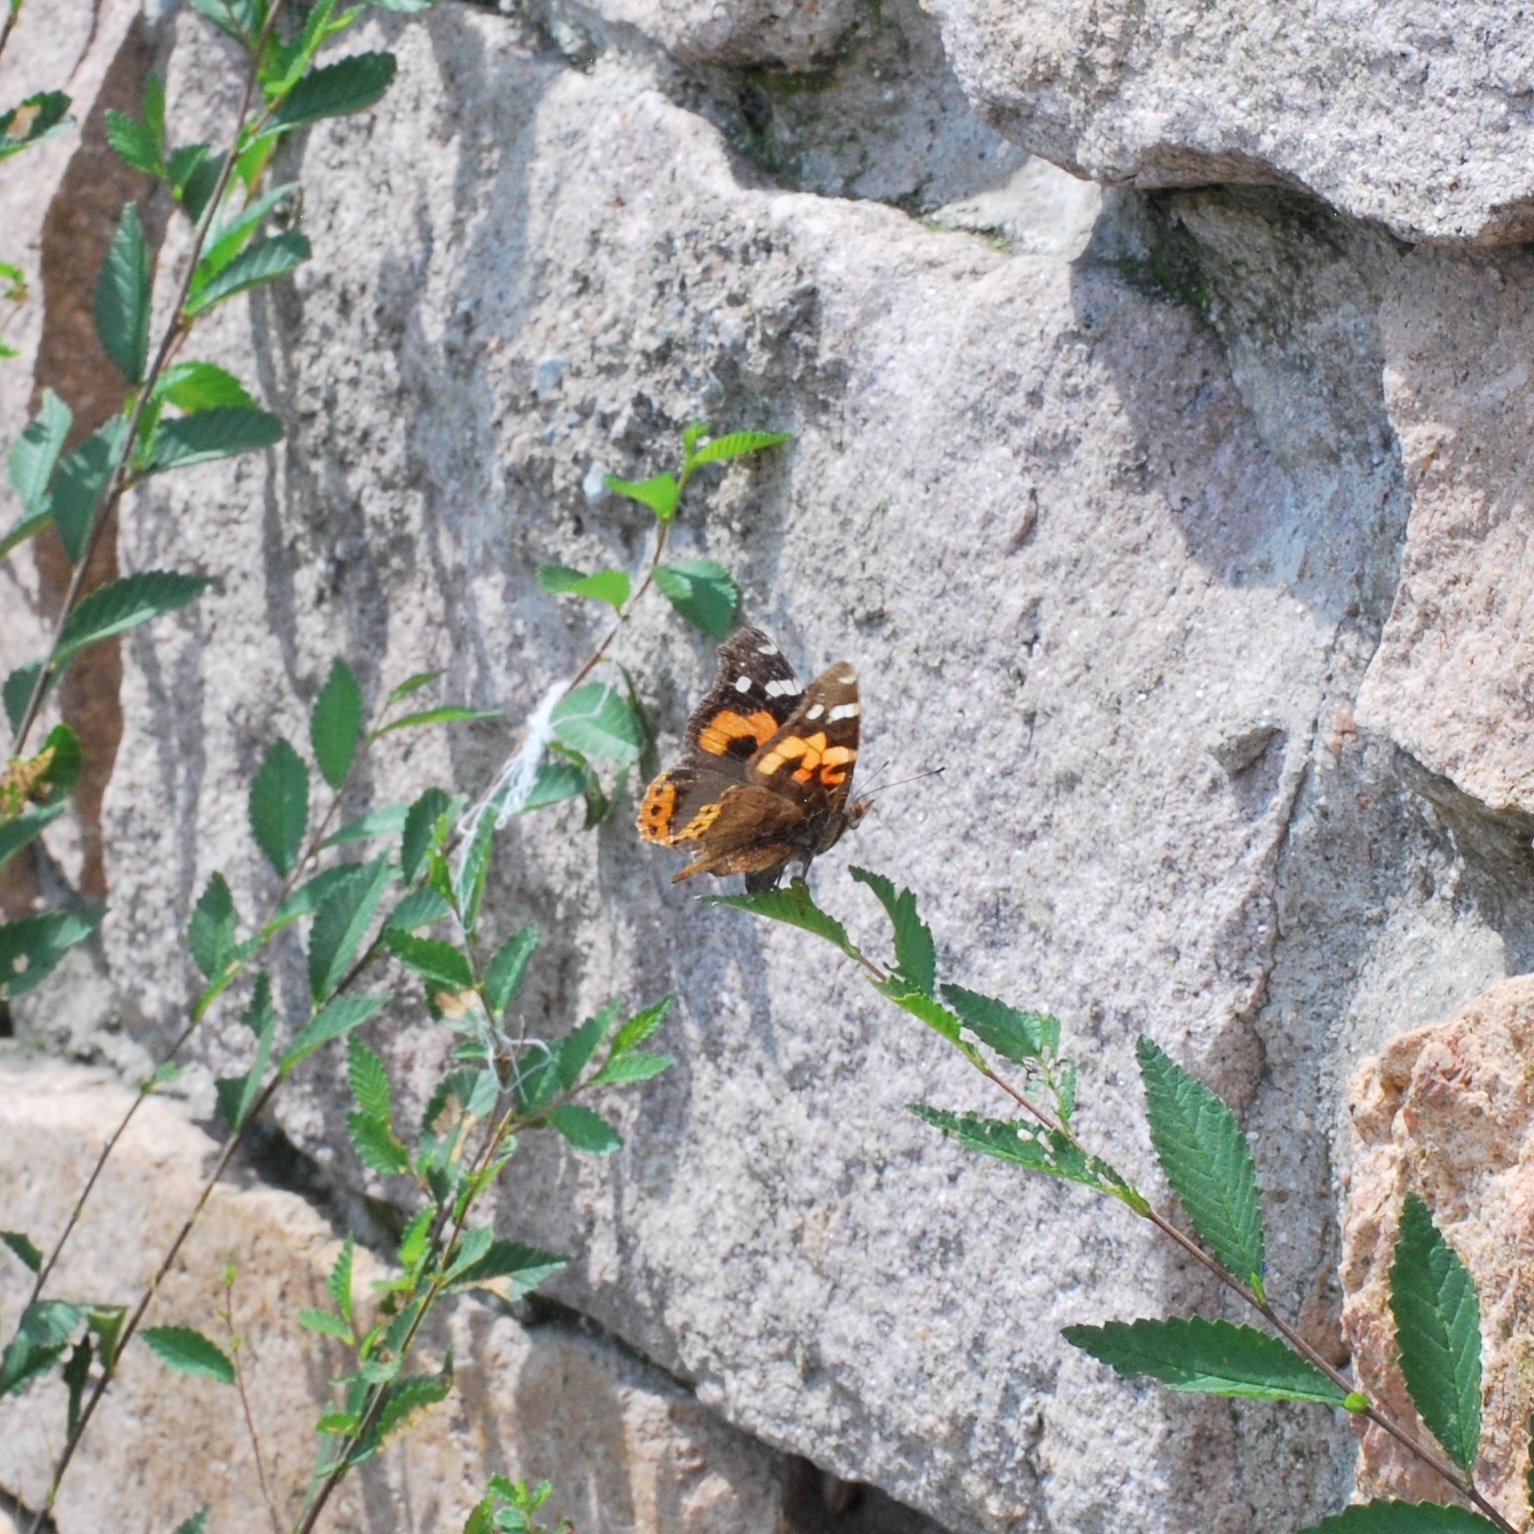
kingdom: Animalia
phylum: Arthropoda
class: Insecta
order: Lepidoptera
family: Nymphalidae
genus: Vanessa
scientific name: Vanessa indica
